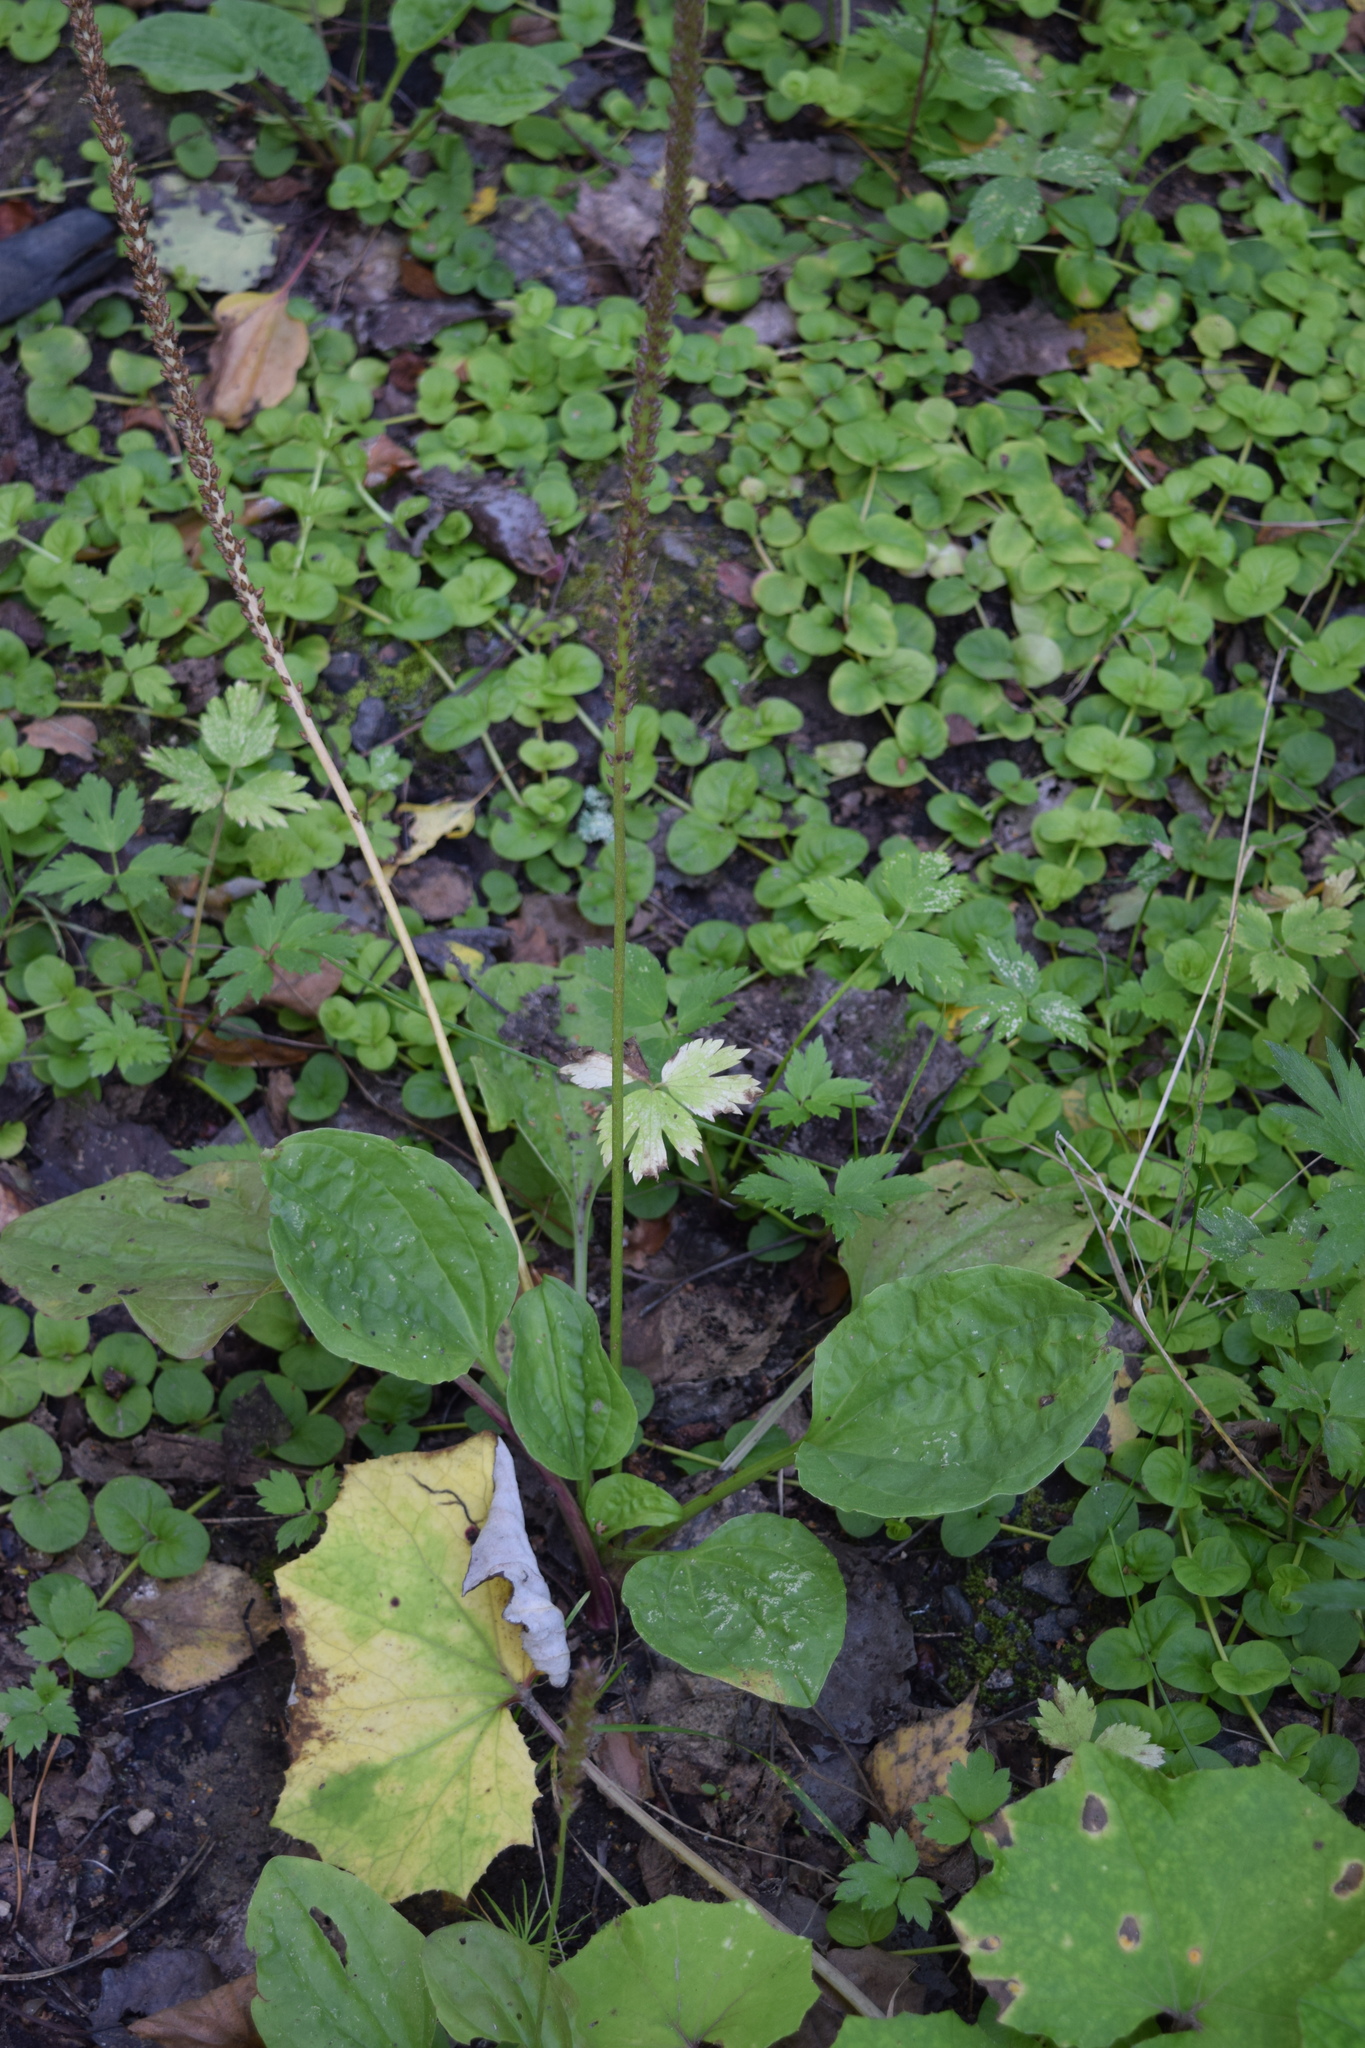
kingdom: Plantae
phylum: Tracheophyta
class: Magnoliopsida
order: Lamiales
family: Plantaginaceae
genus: Plantago
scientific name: Plantago major
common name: Common plantain
